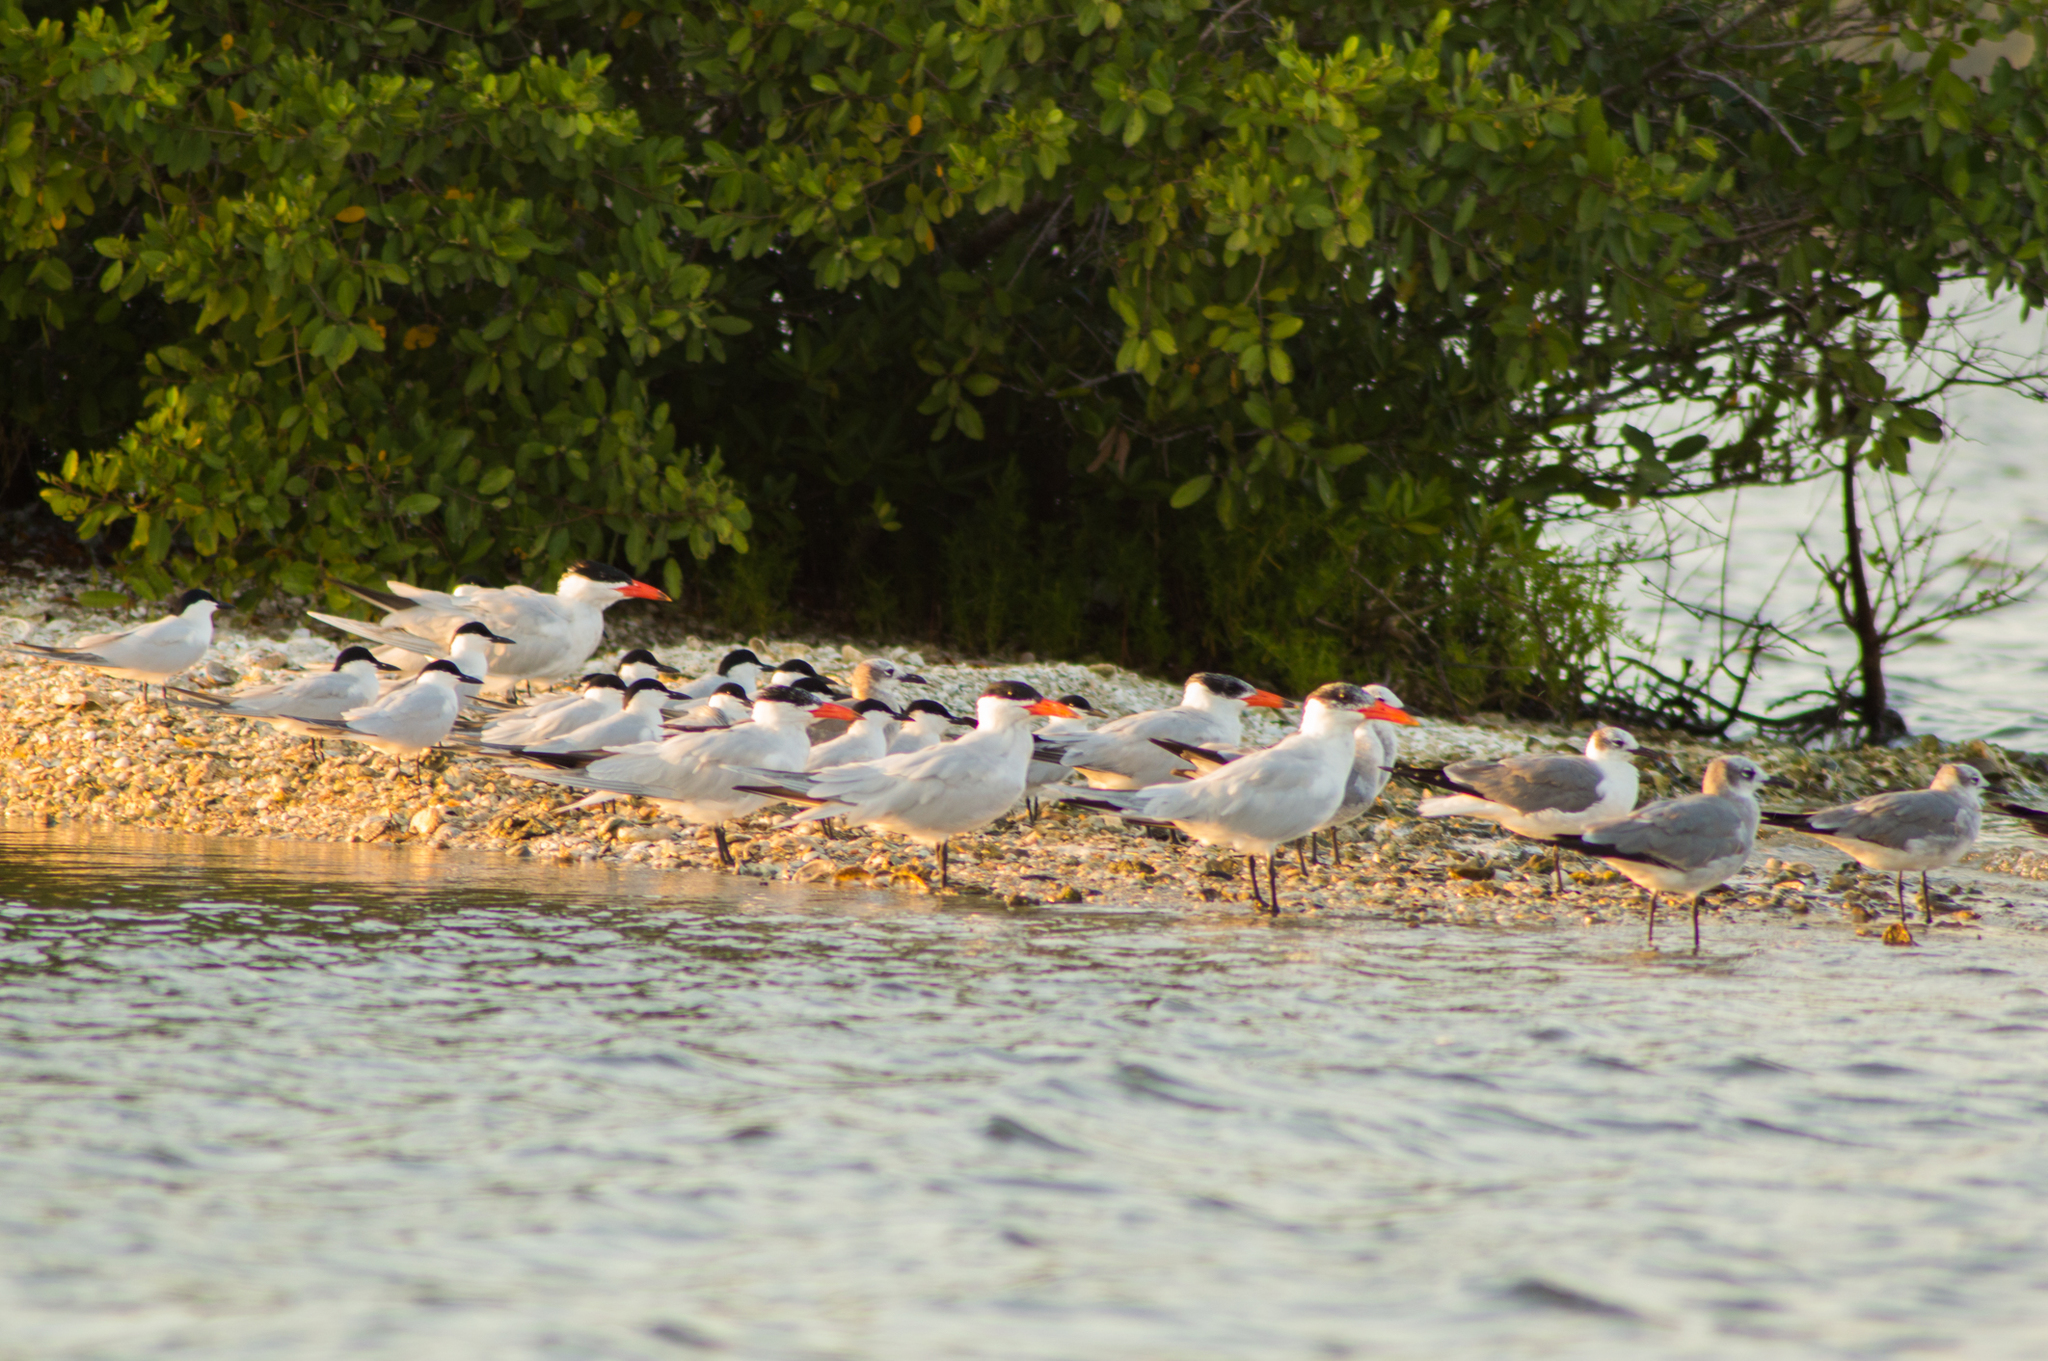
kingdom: Animalia
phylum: Chordata
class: Aves
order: Charadriiformes
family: Laridae
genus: Hydroprogne
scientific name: Hydroprogne caspia
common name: Caspian tern
